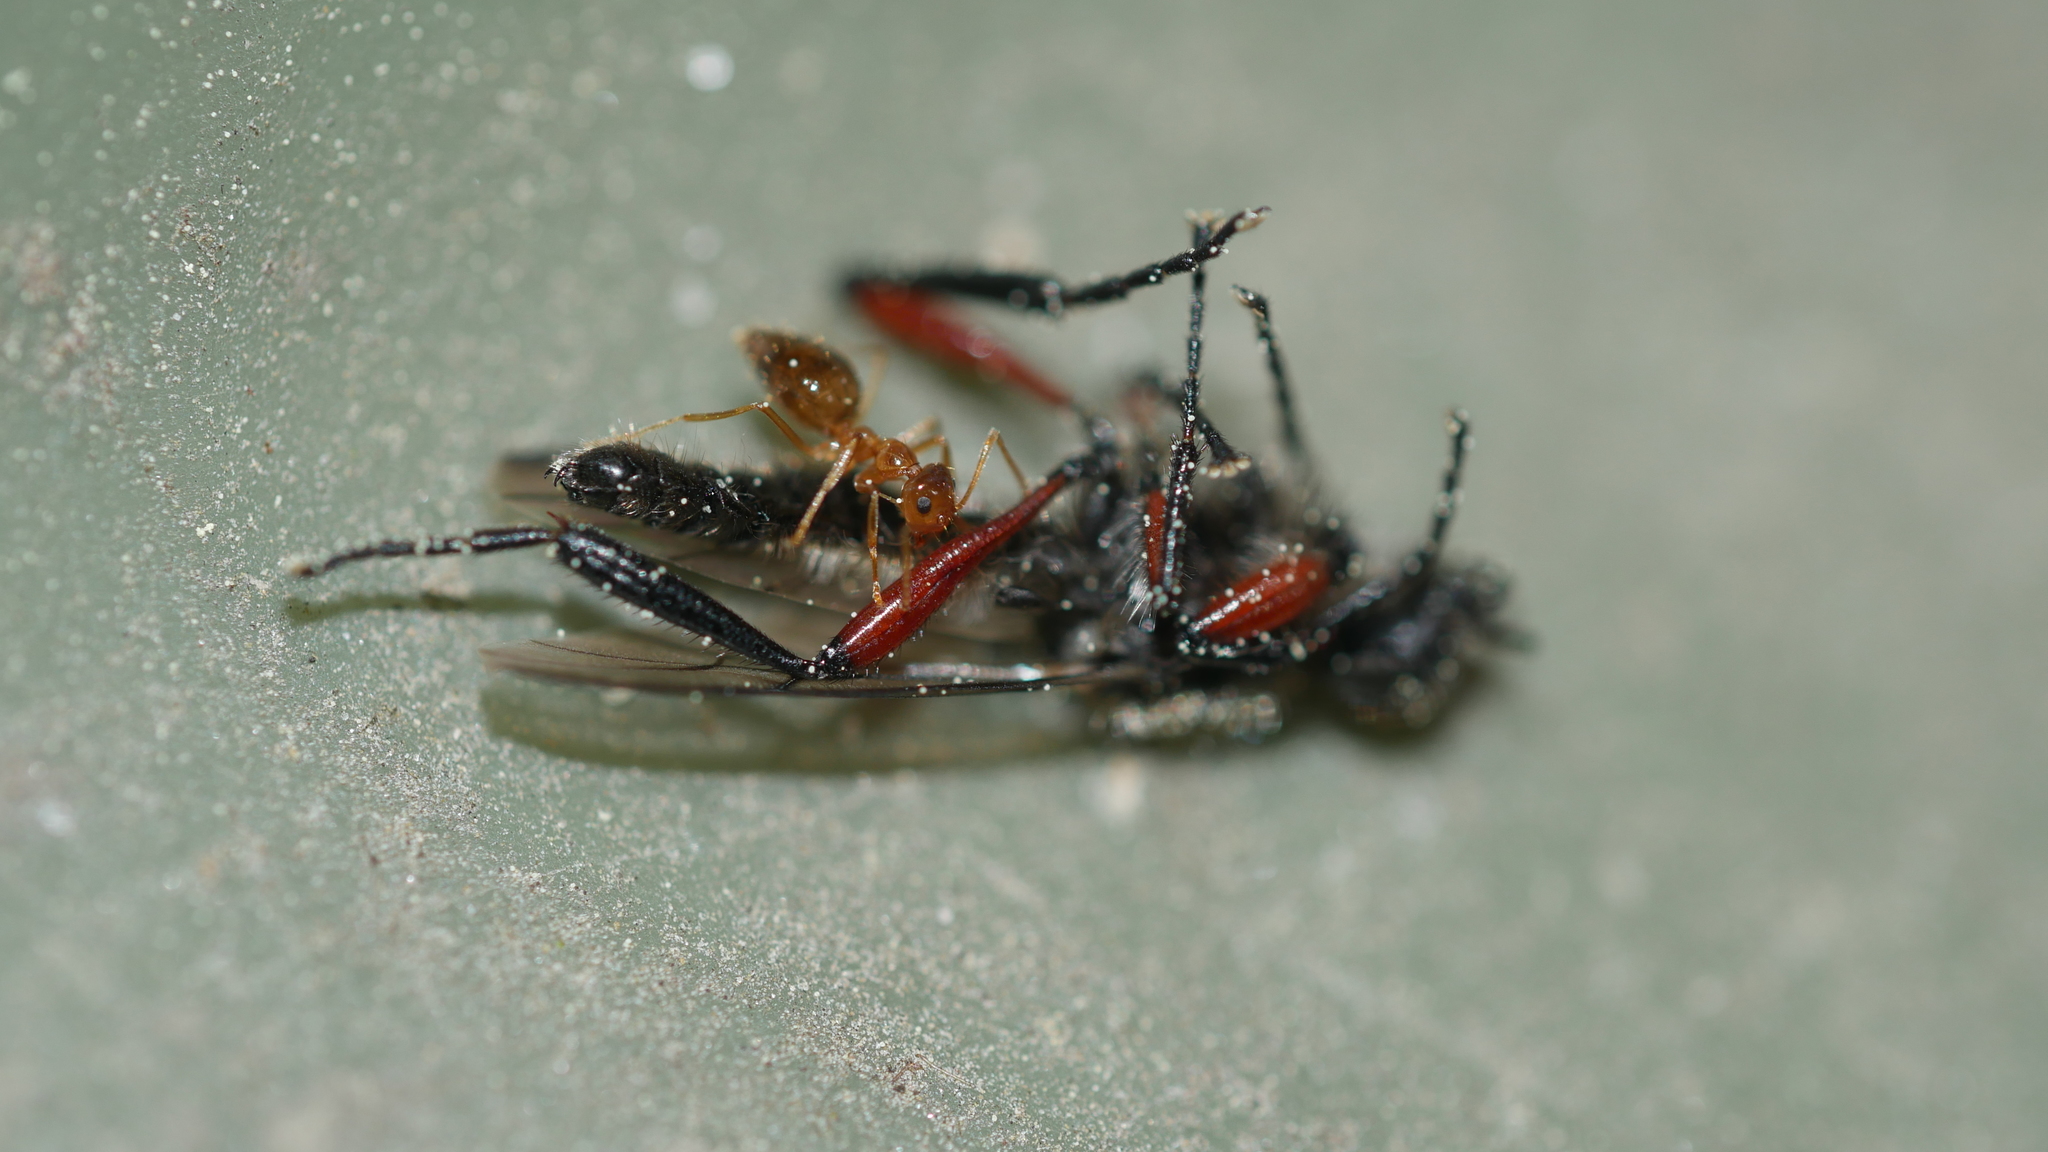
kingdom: Animalia
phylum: Arthropoda
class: Insecta
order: Diptera
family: Bibionidae
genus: Bibio
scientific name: Bibio femoratus
